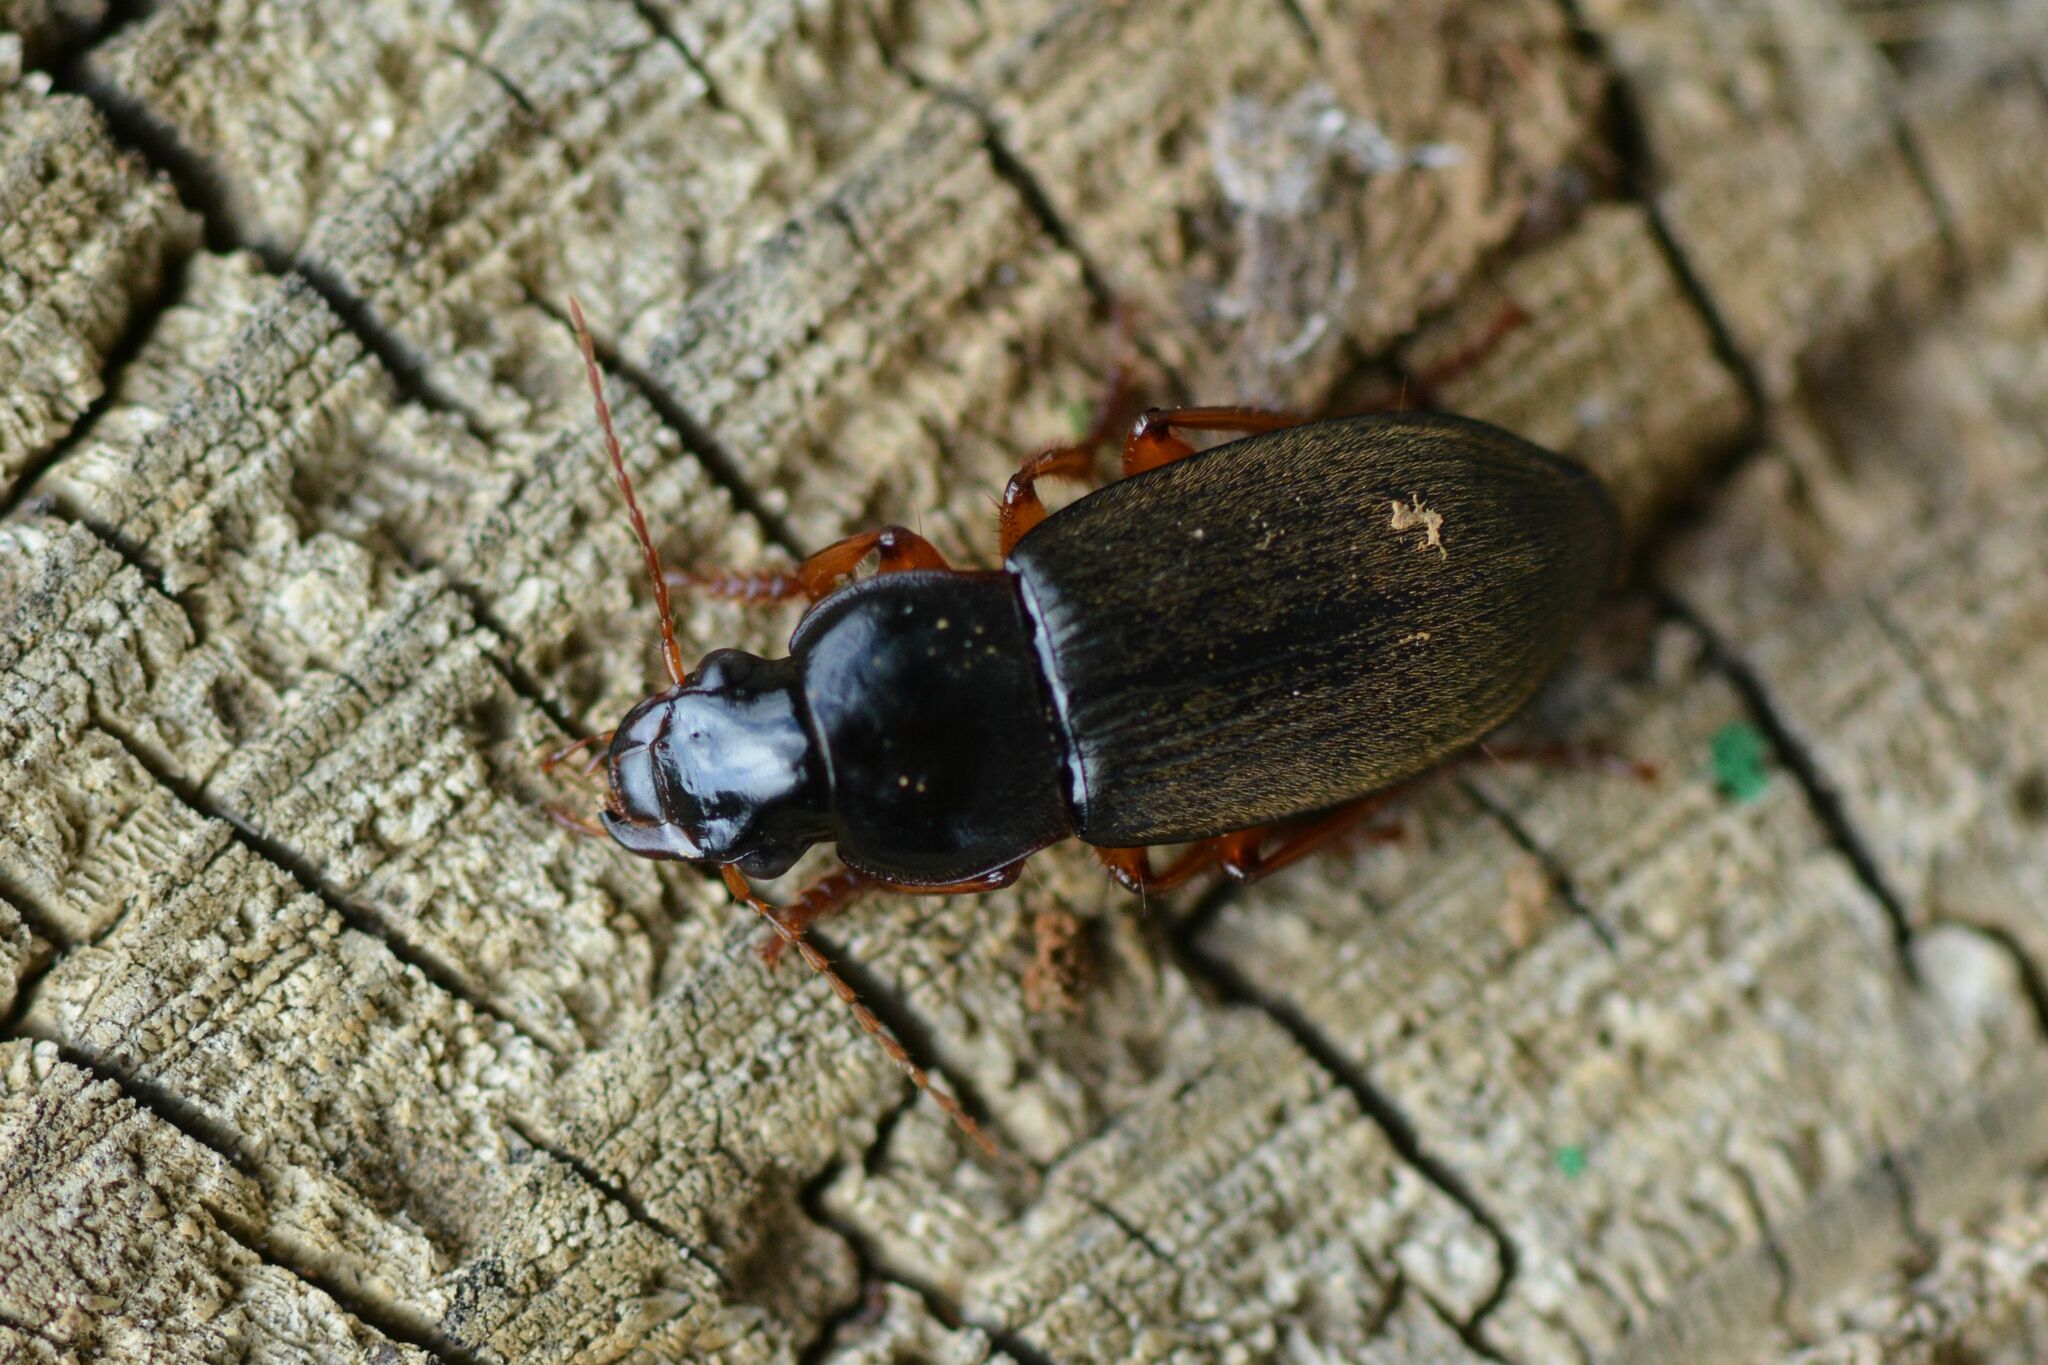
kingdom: Animalia
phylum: Arthropoda
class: Insecta
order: Coleoptera
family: Carabidae
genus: Harpalus
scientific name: Harpalus rufipes
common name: Strawberry harp ground beetle
